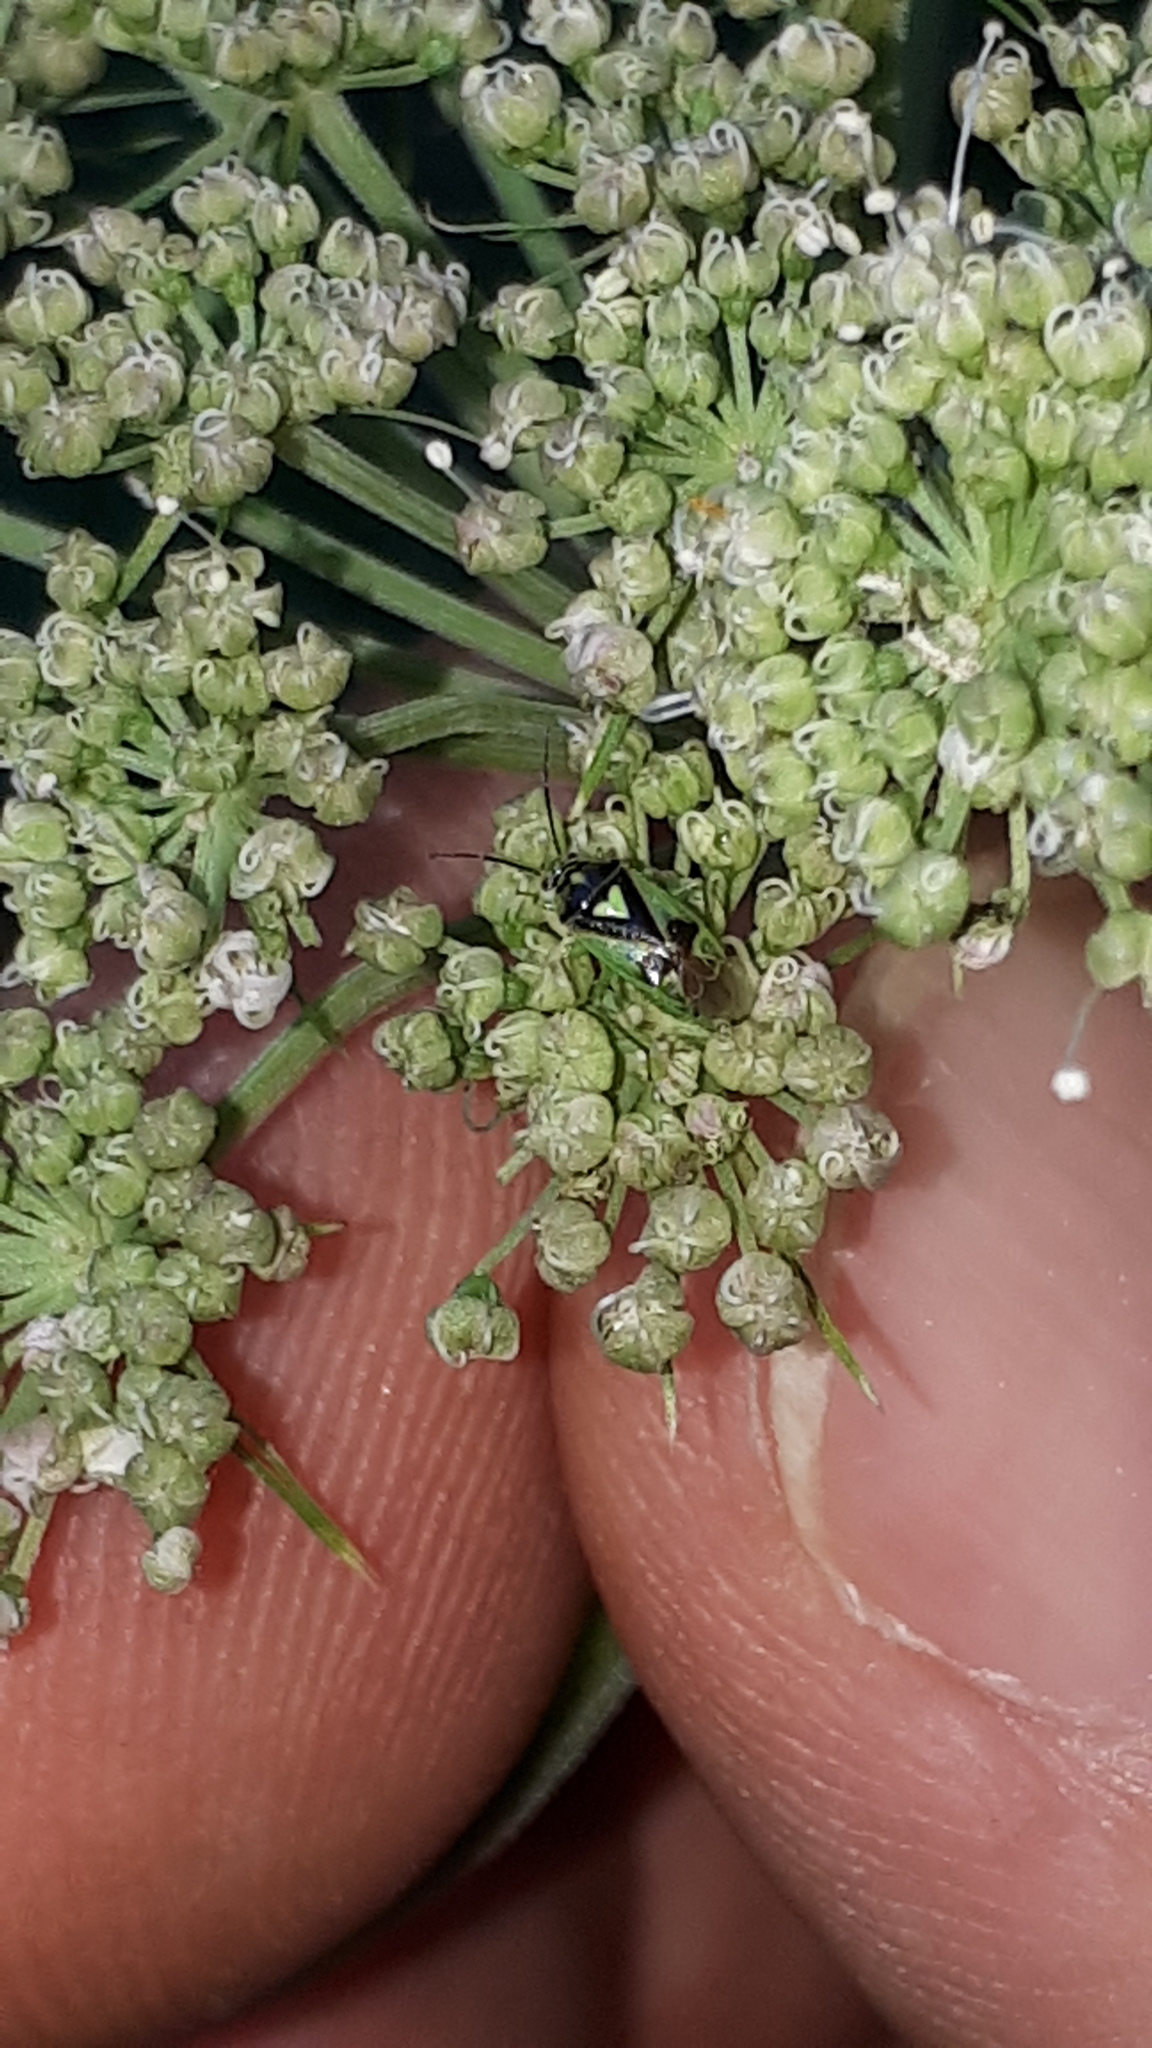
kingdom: Animalia
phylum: Arthropoda
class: Insecta
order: Hemiptera
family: Miridae
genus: Orthops
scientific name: Orthops campestris
